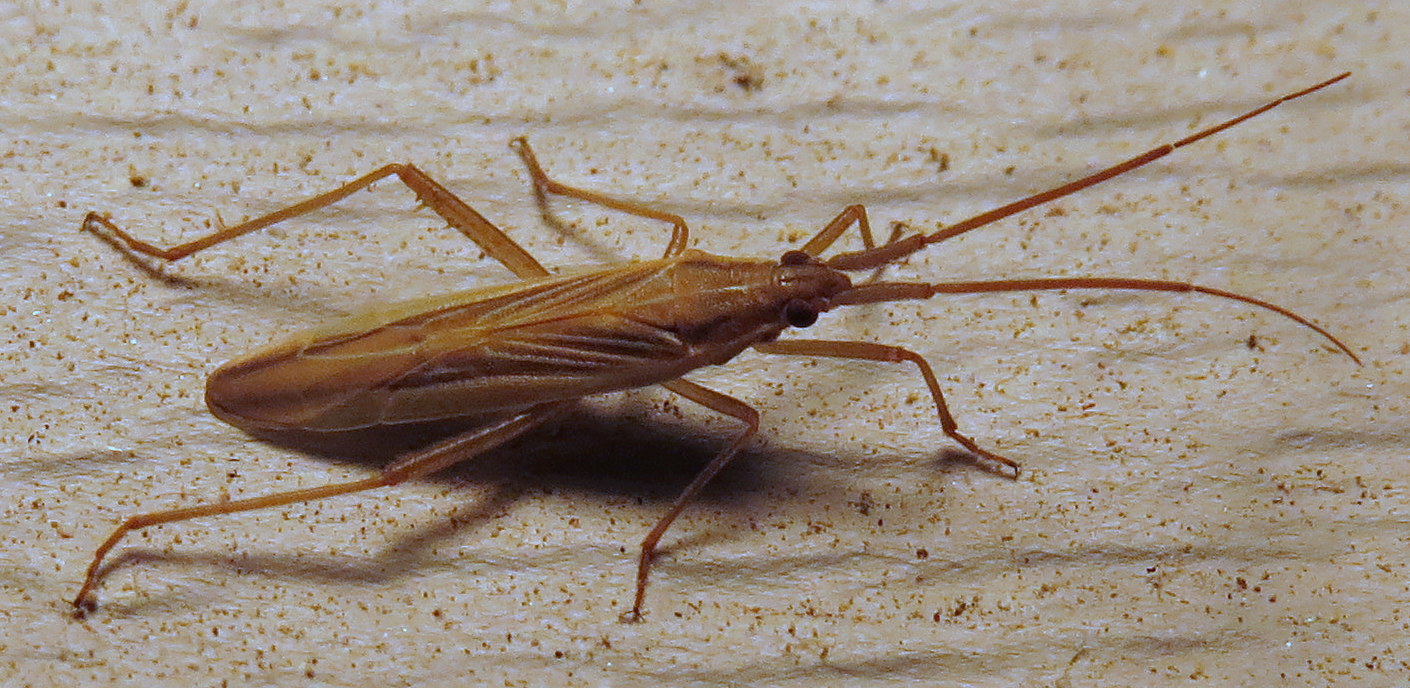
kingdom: Animalia
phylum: Arthropoda
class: Insecta
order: Hemiptera
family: Miridae
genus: Stenodema
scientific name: Stenodema trispinosa
